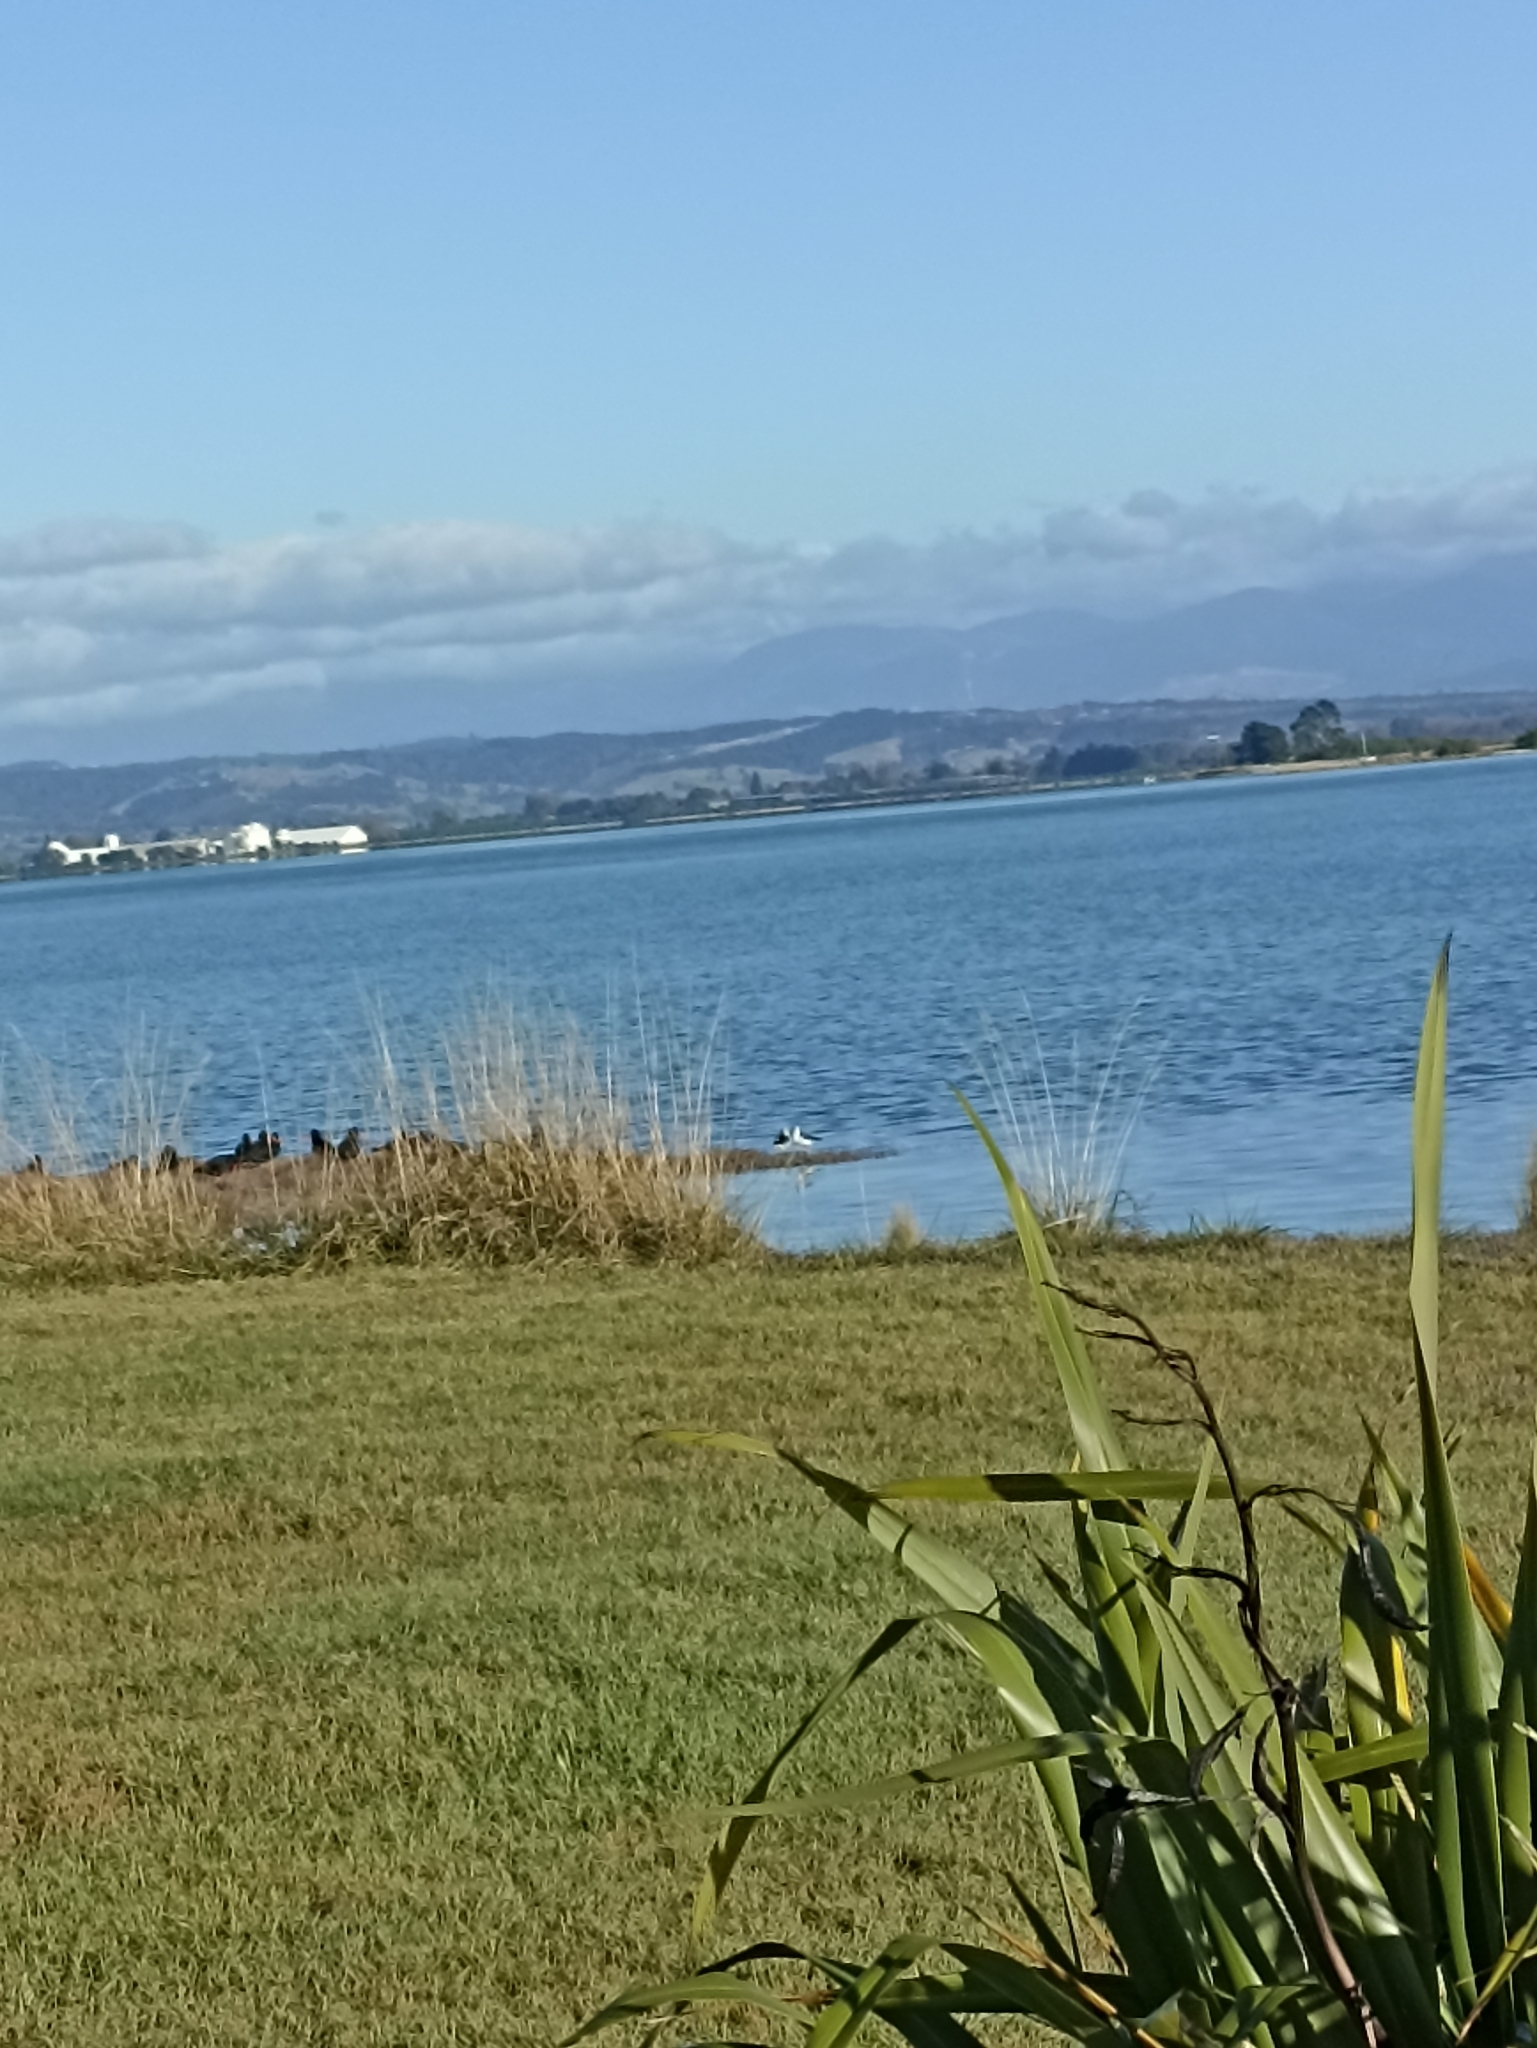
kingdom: Animalia
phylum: Chordata
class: Aves
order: Charadriiformes
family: Recurvirostridae
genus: Himantopus
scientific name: Himantopus leucocephalus
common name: White-headed stilt
